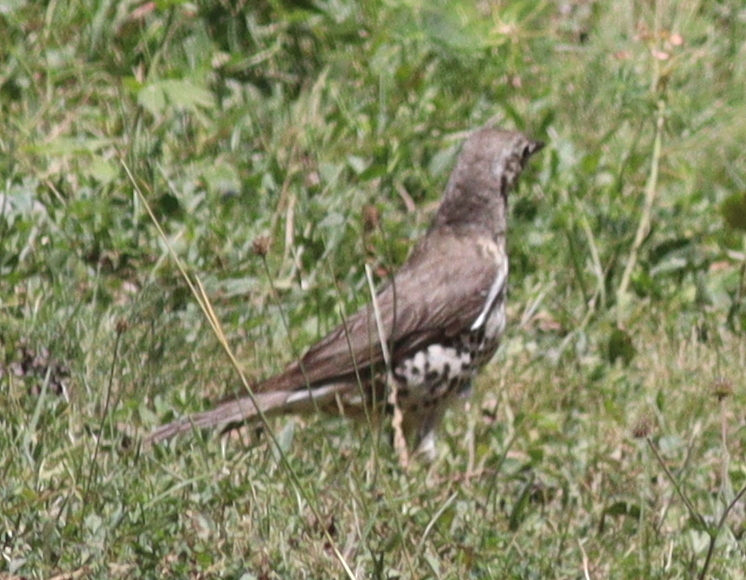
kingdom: Animalia
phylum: Chordata
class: Aves
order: Passeriformes
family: Turdidae
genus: Turdus
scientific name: Turdus viscivorus
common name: Mistle thrush
